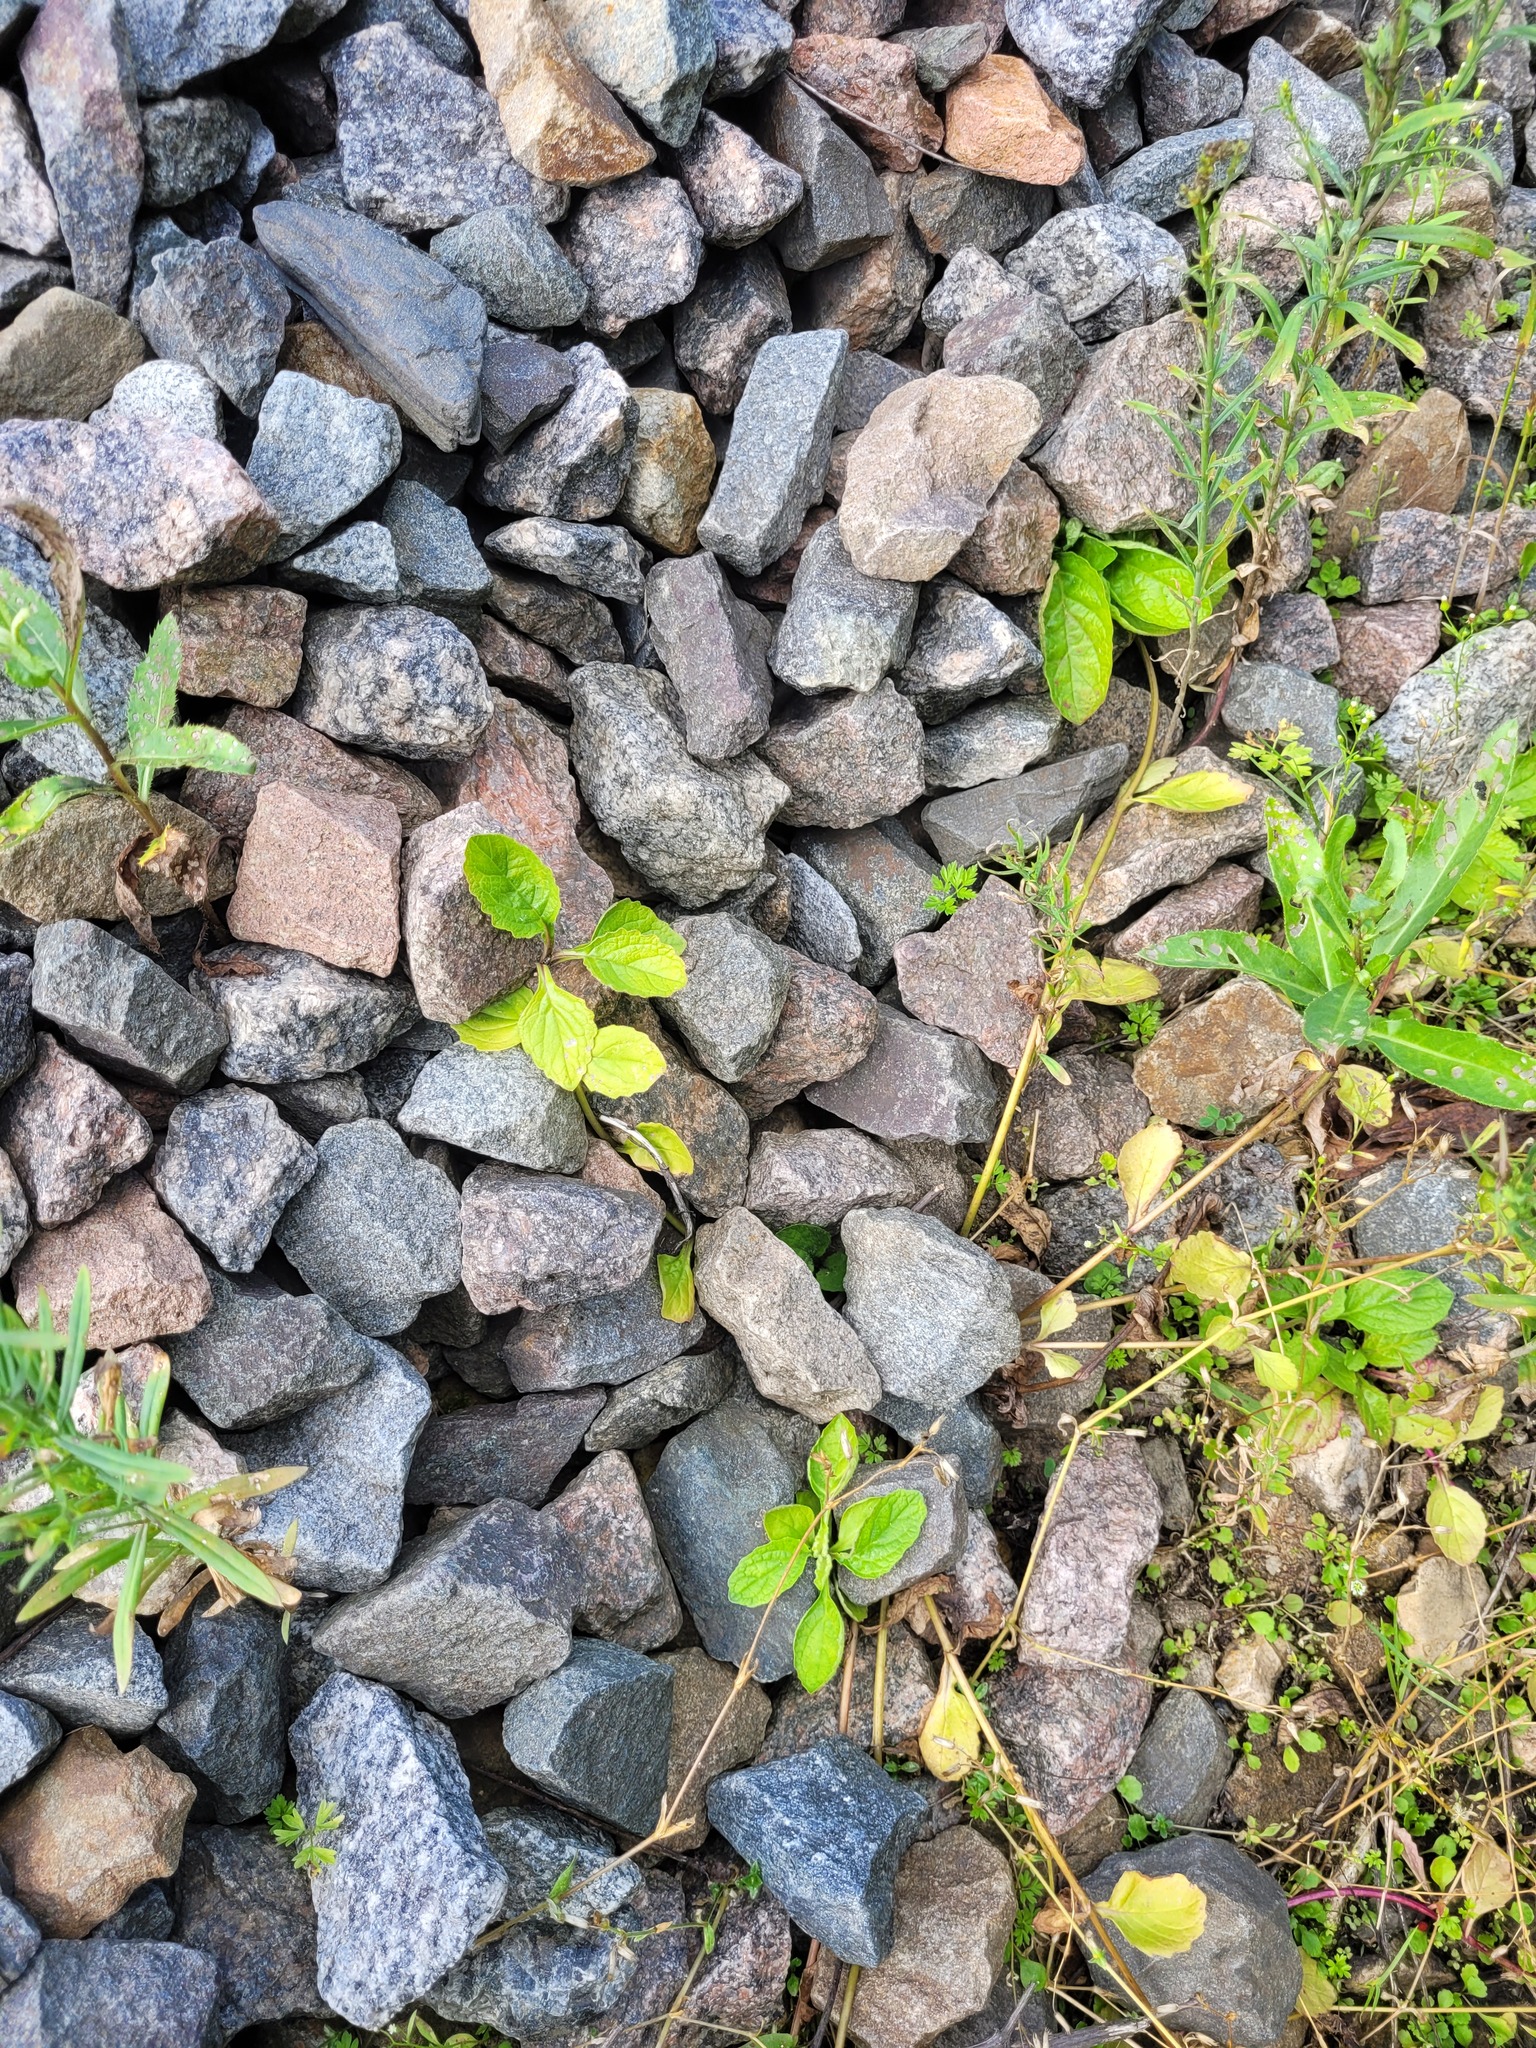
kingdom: Plantae
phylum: Tracheophyta
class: Magnoliopsida
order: Lamiales
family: Lamiaceae
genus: Ajuga
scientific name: Ajuga reptans
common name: Bugle
